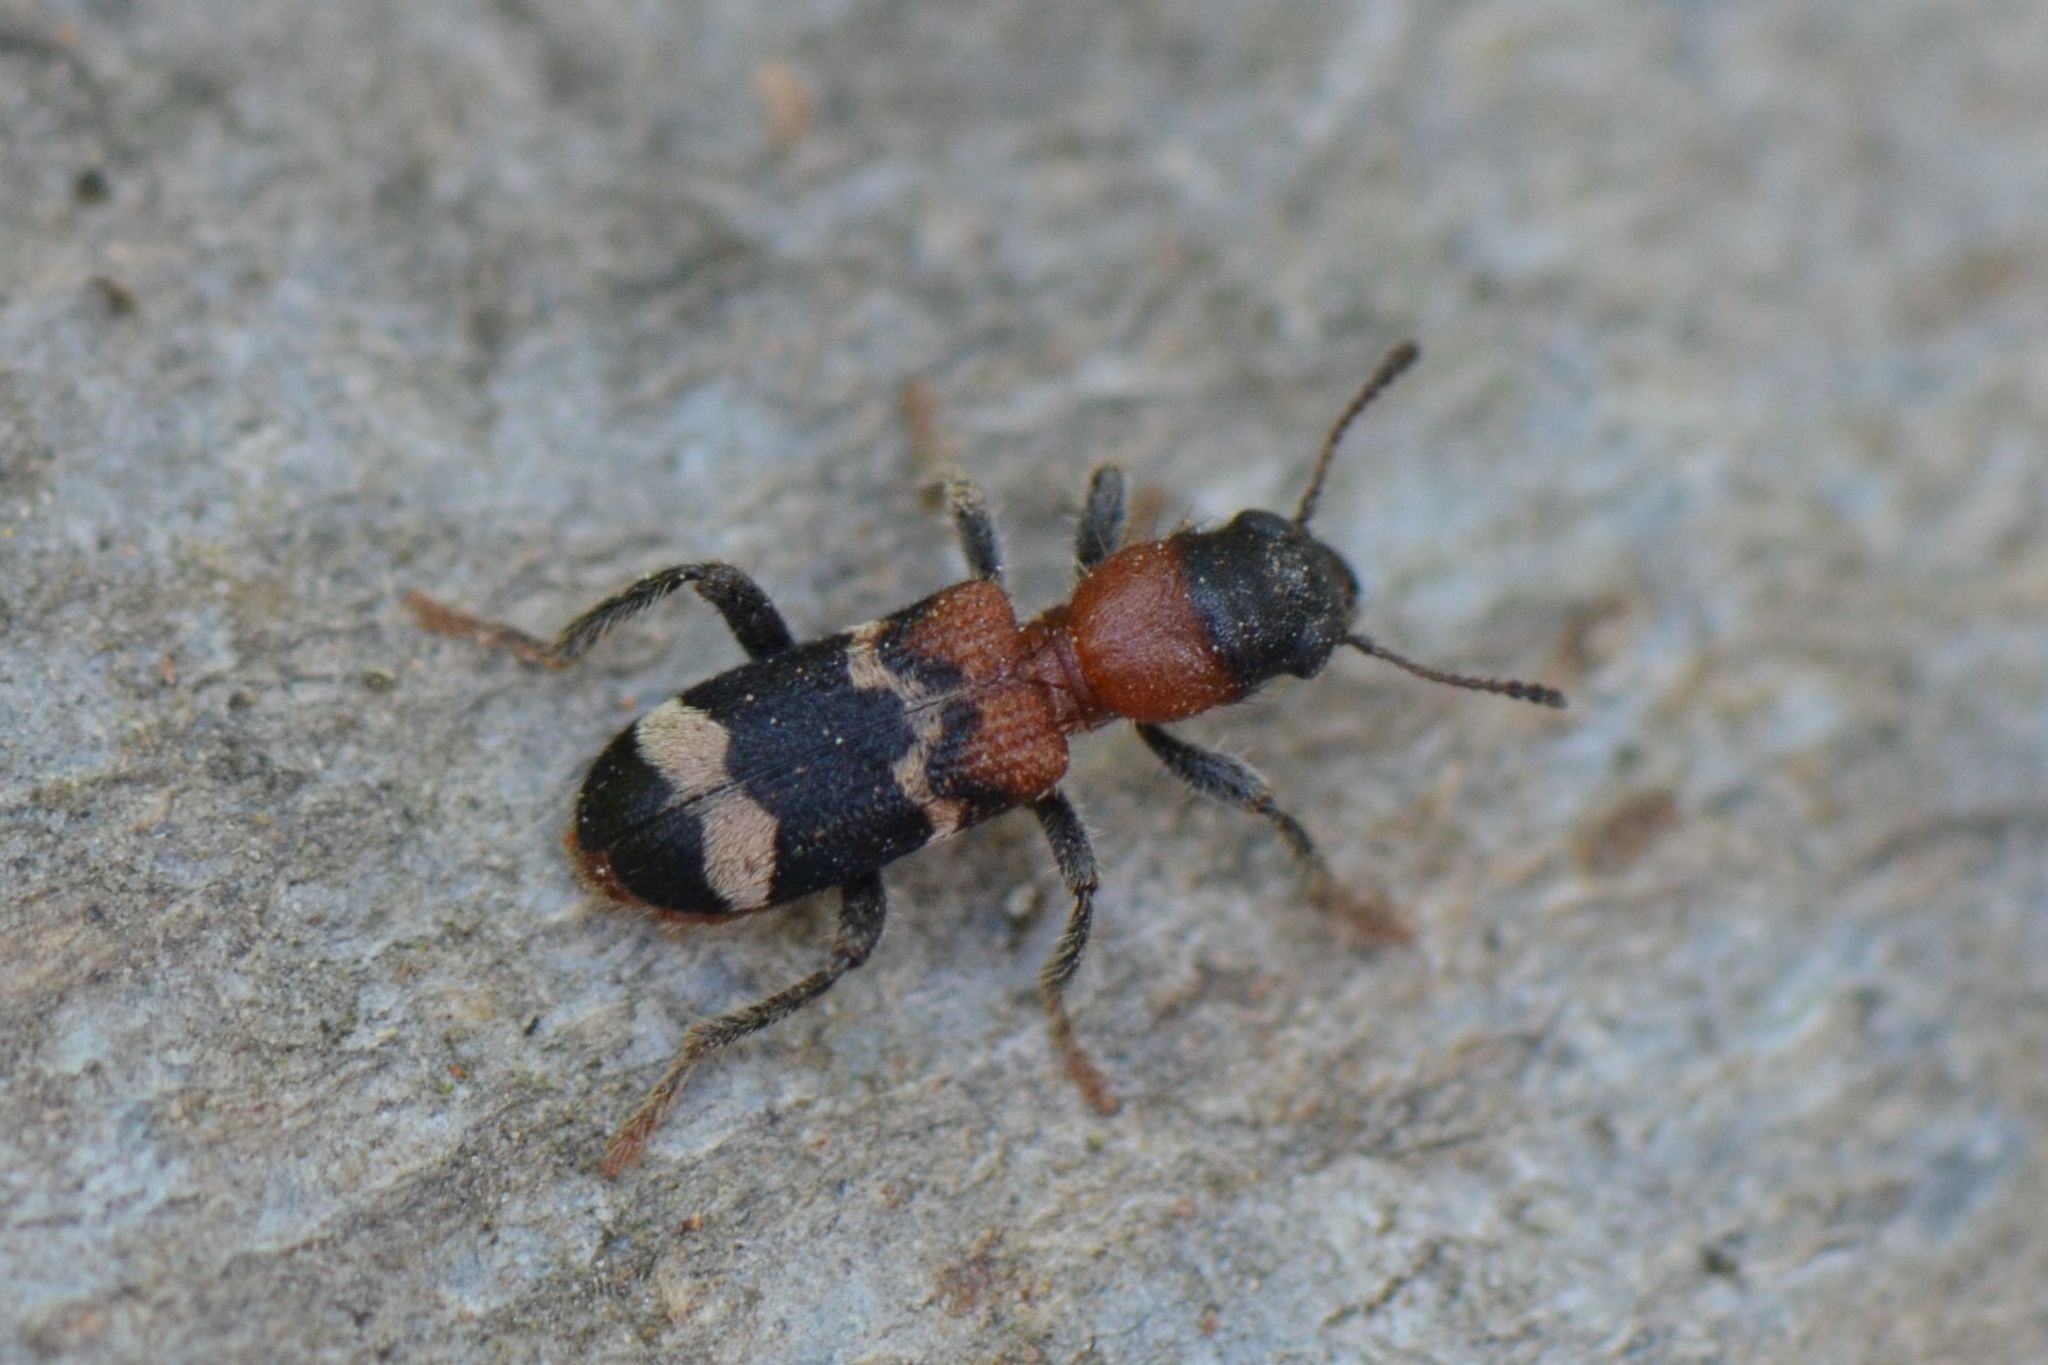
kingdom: Animalia
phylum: Arthropoda
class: Insecta
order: Coleoptera
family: Cleridae
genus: Thanasimus
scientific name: Thanasimus formicarius
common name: Ant beetle
